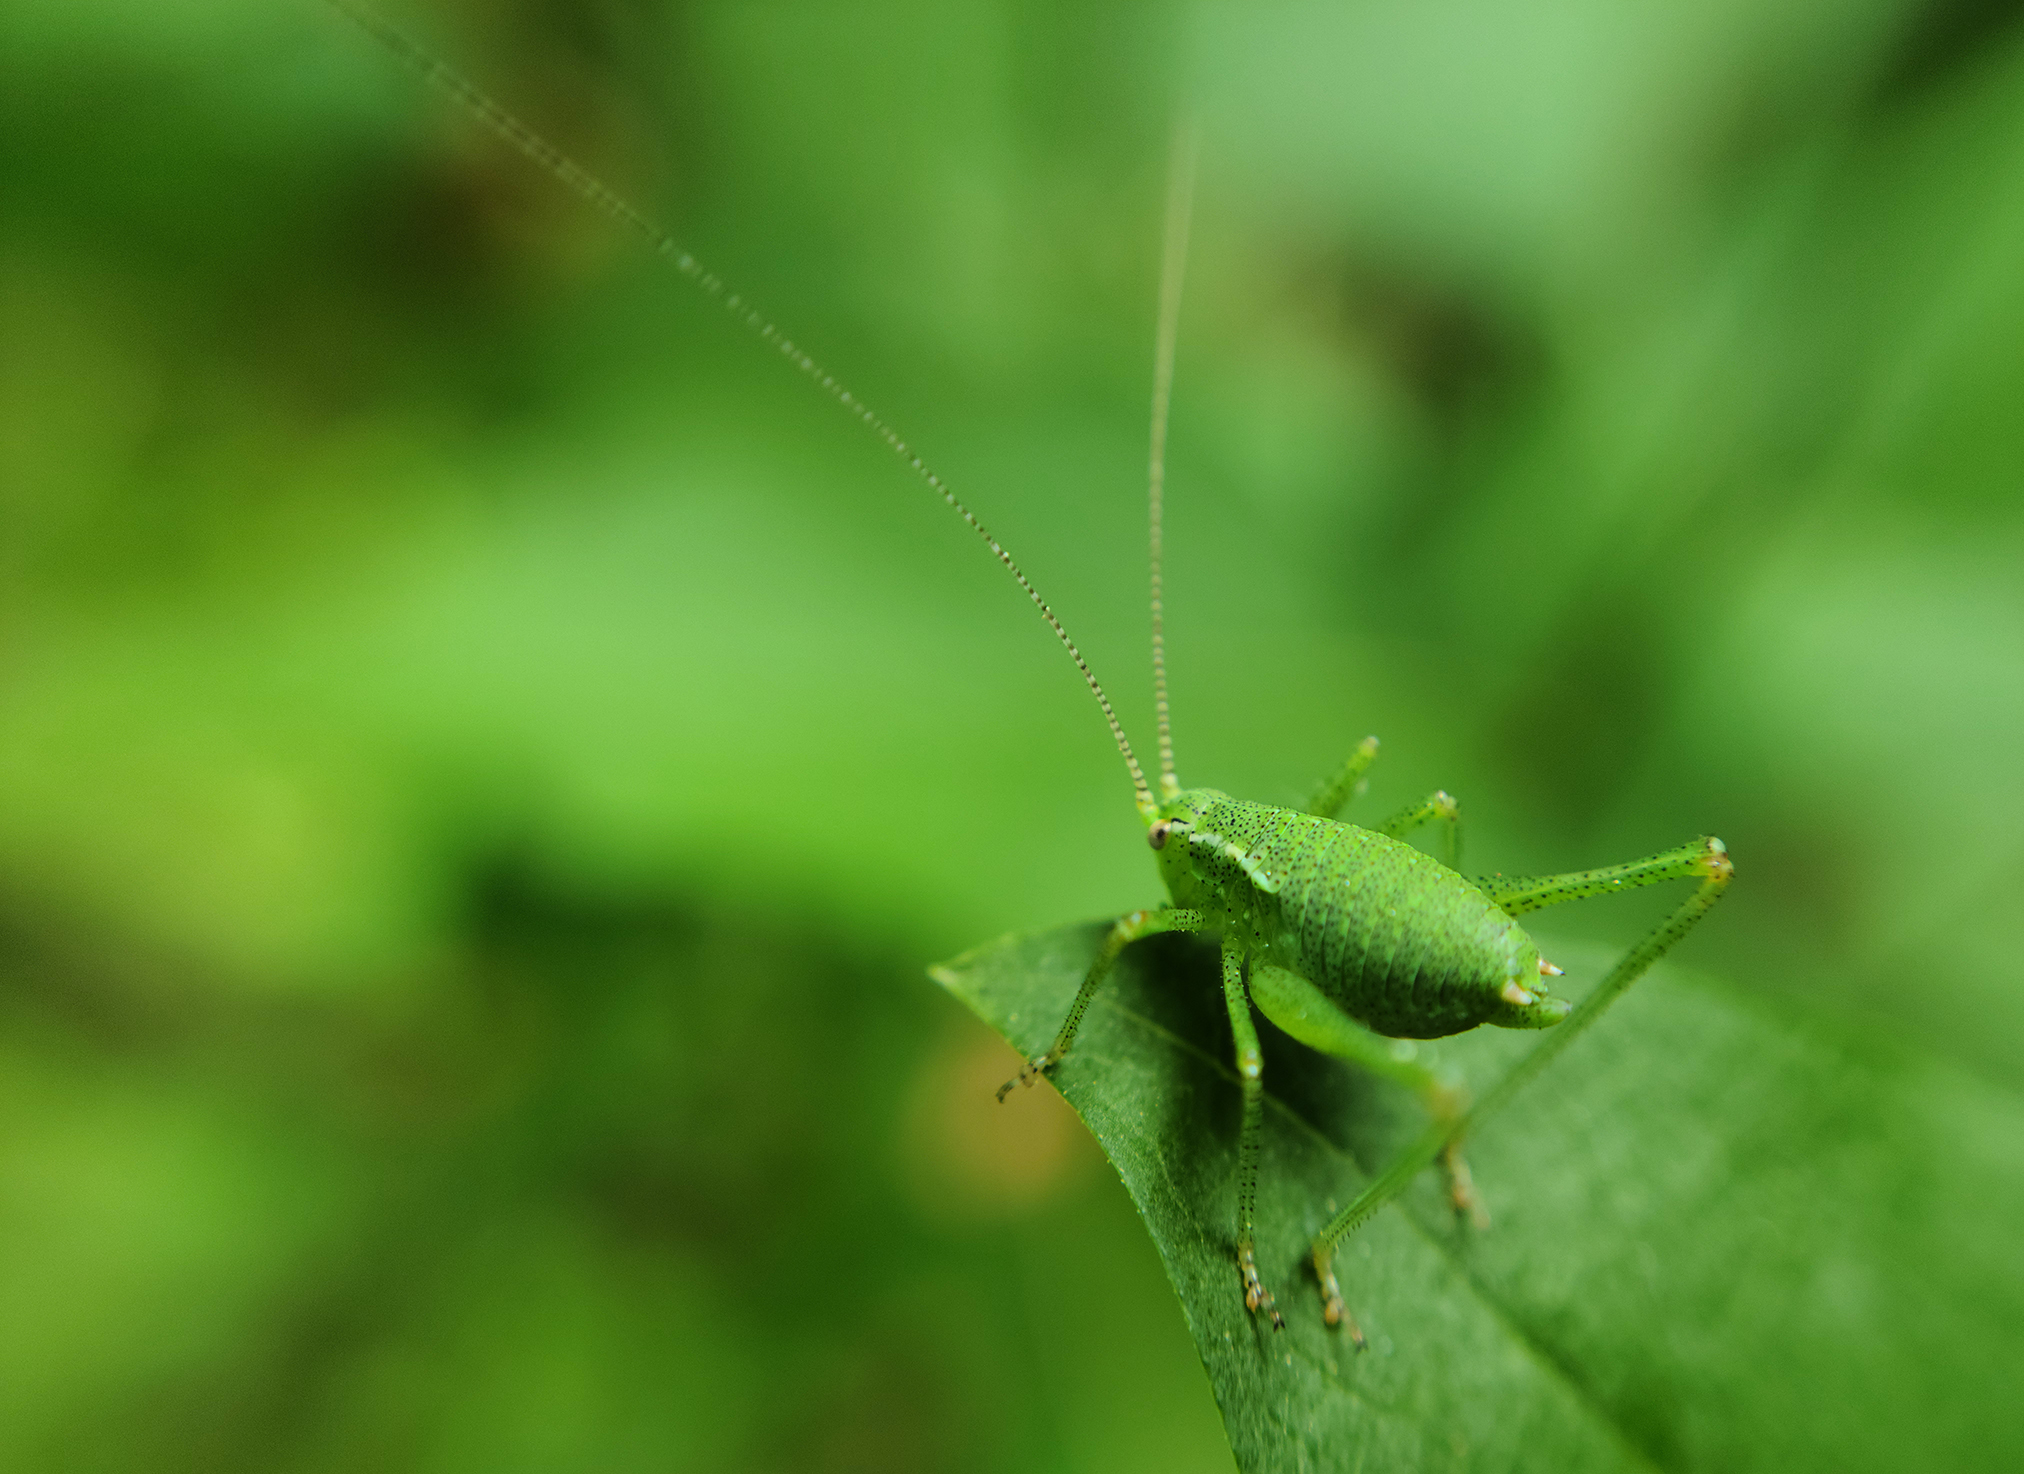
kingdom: Animalia
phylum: Arthropoda
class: Insecta
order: Orthoptera
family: Tettigoniidae
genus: Leptophyes
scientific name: Leptophyes punctatissima
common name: Speckled bush-cricket
